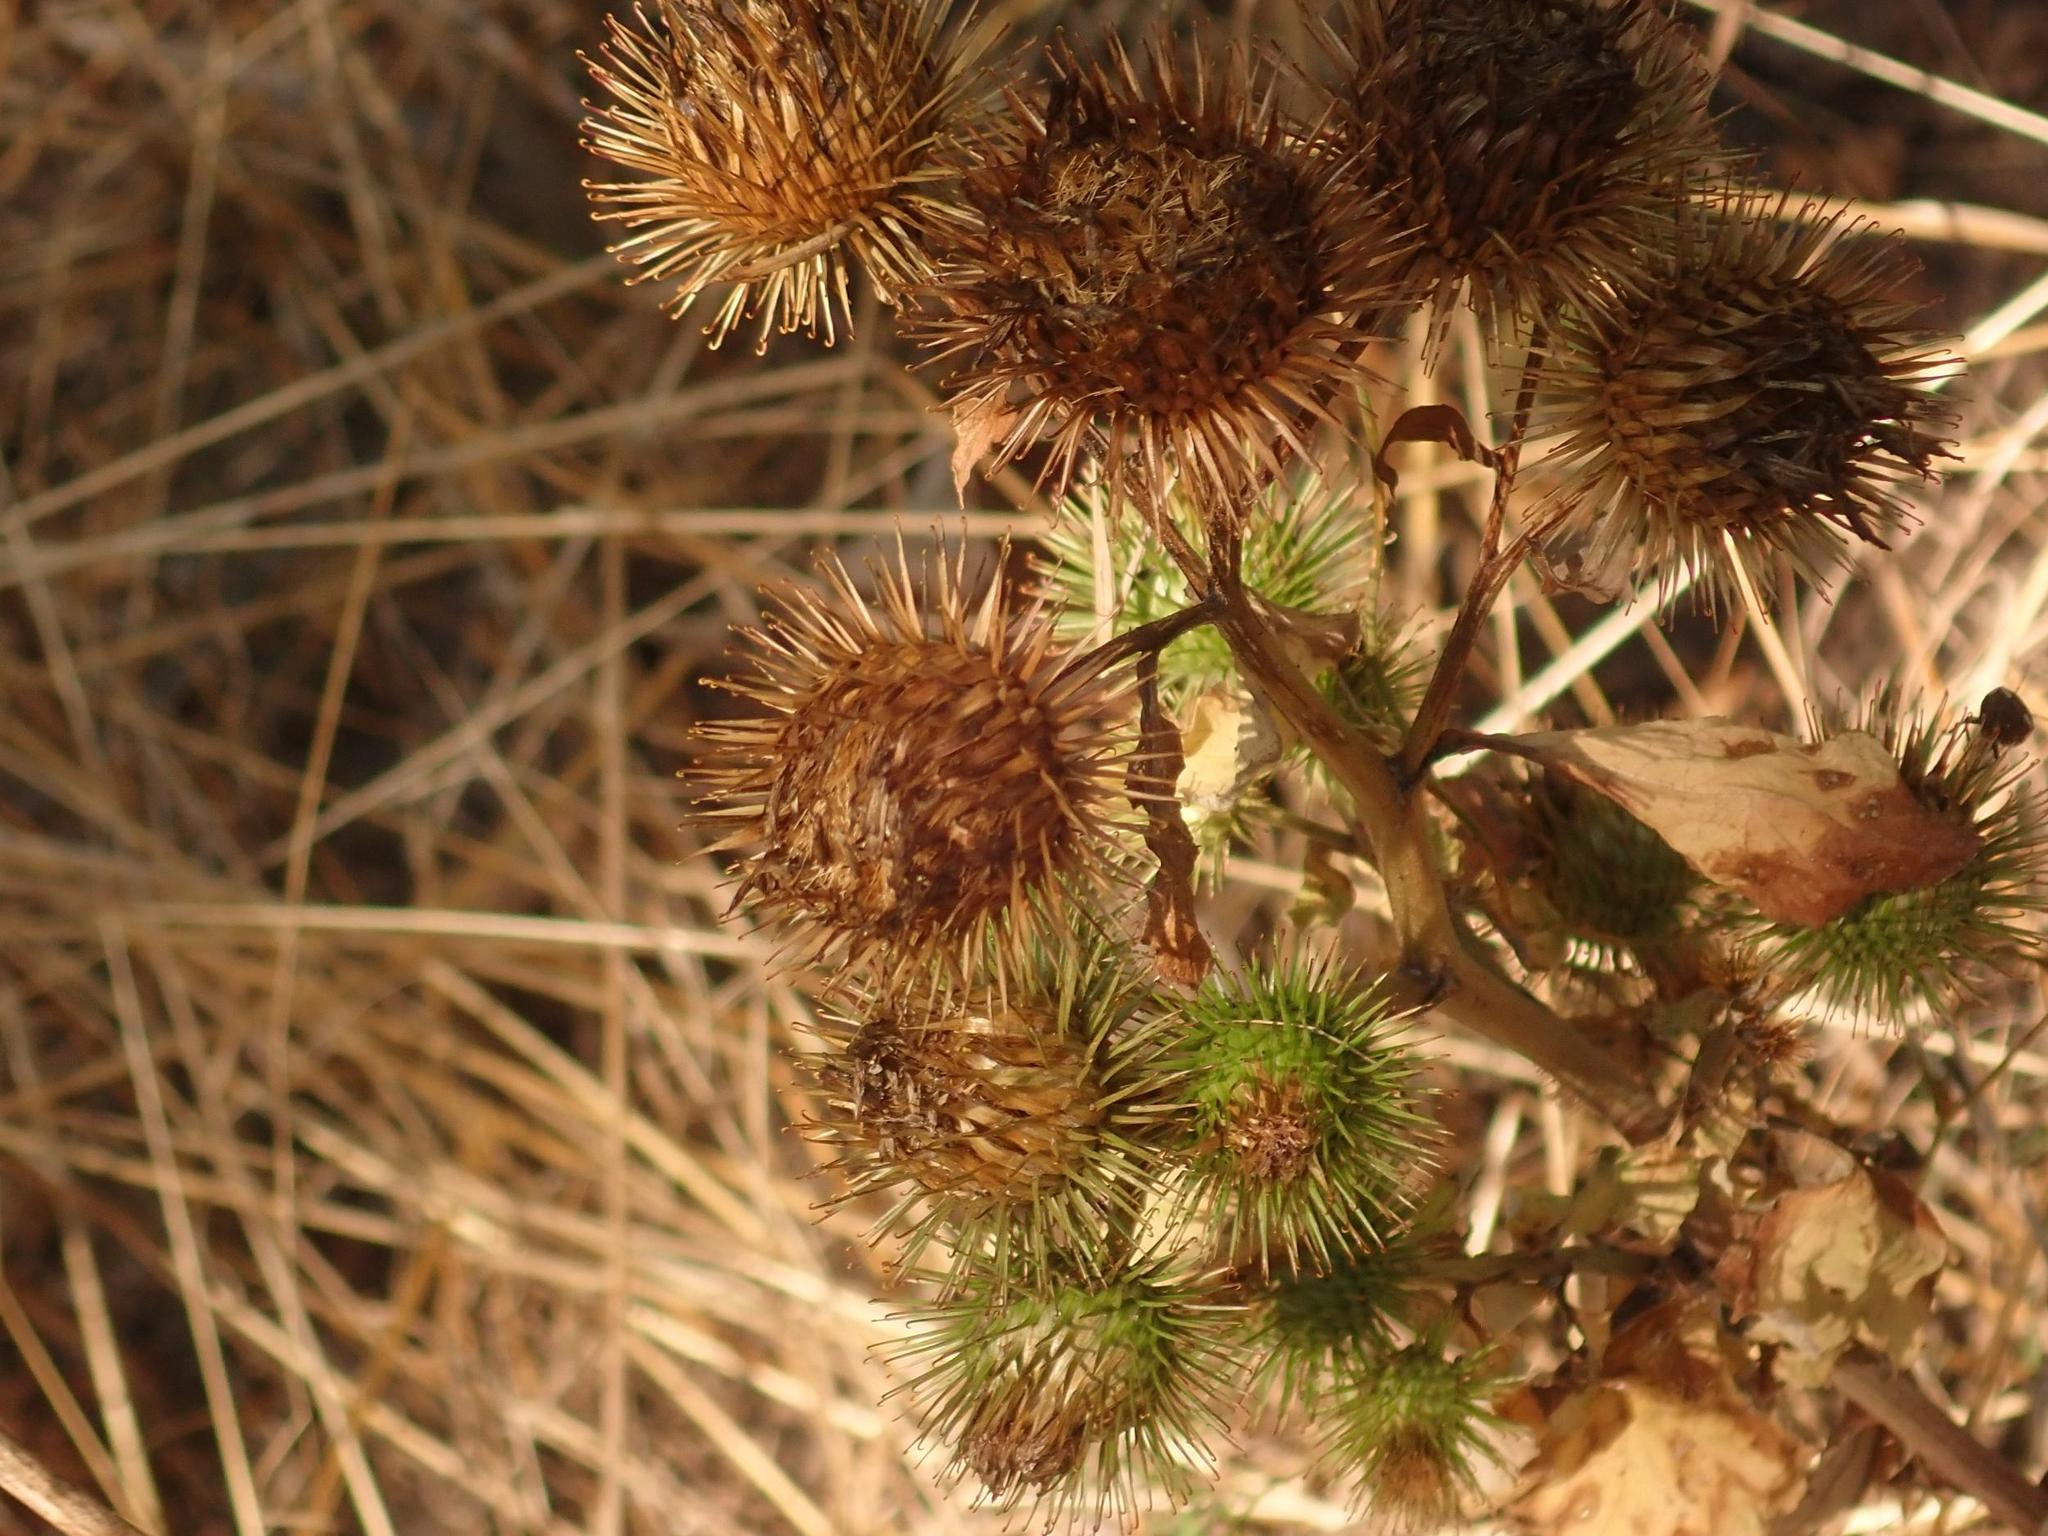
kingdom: Plantae
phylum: Tracheophyta
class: Magnoliopsida
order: Asterales
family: Asteraceae
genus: Arctium
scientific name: Arctium lappa
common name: Greater burdock
